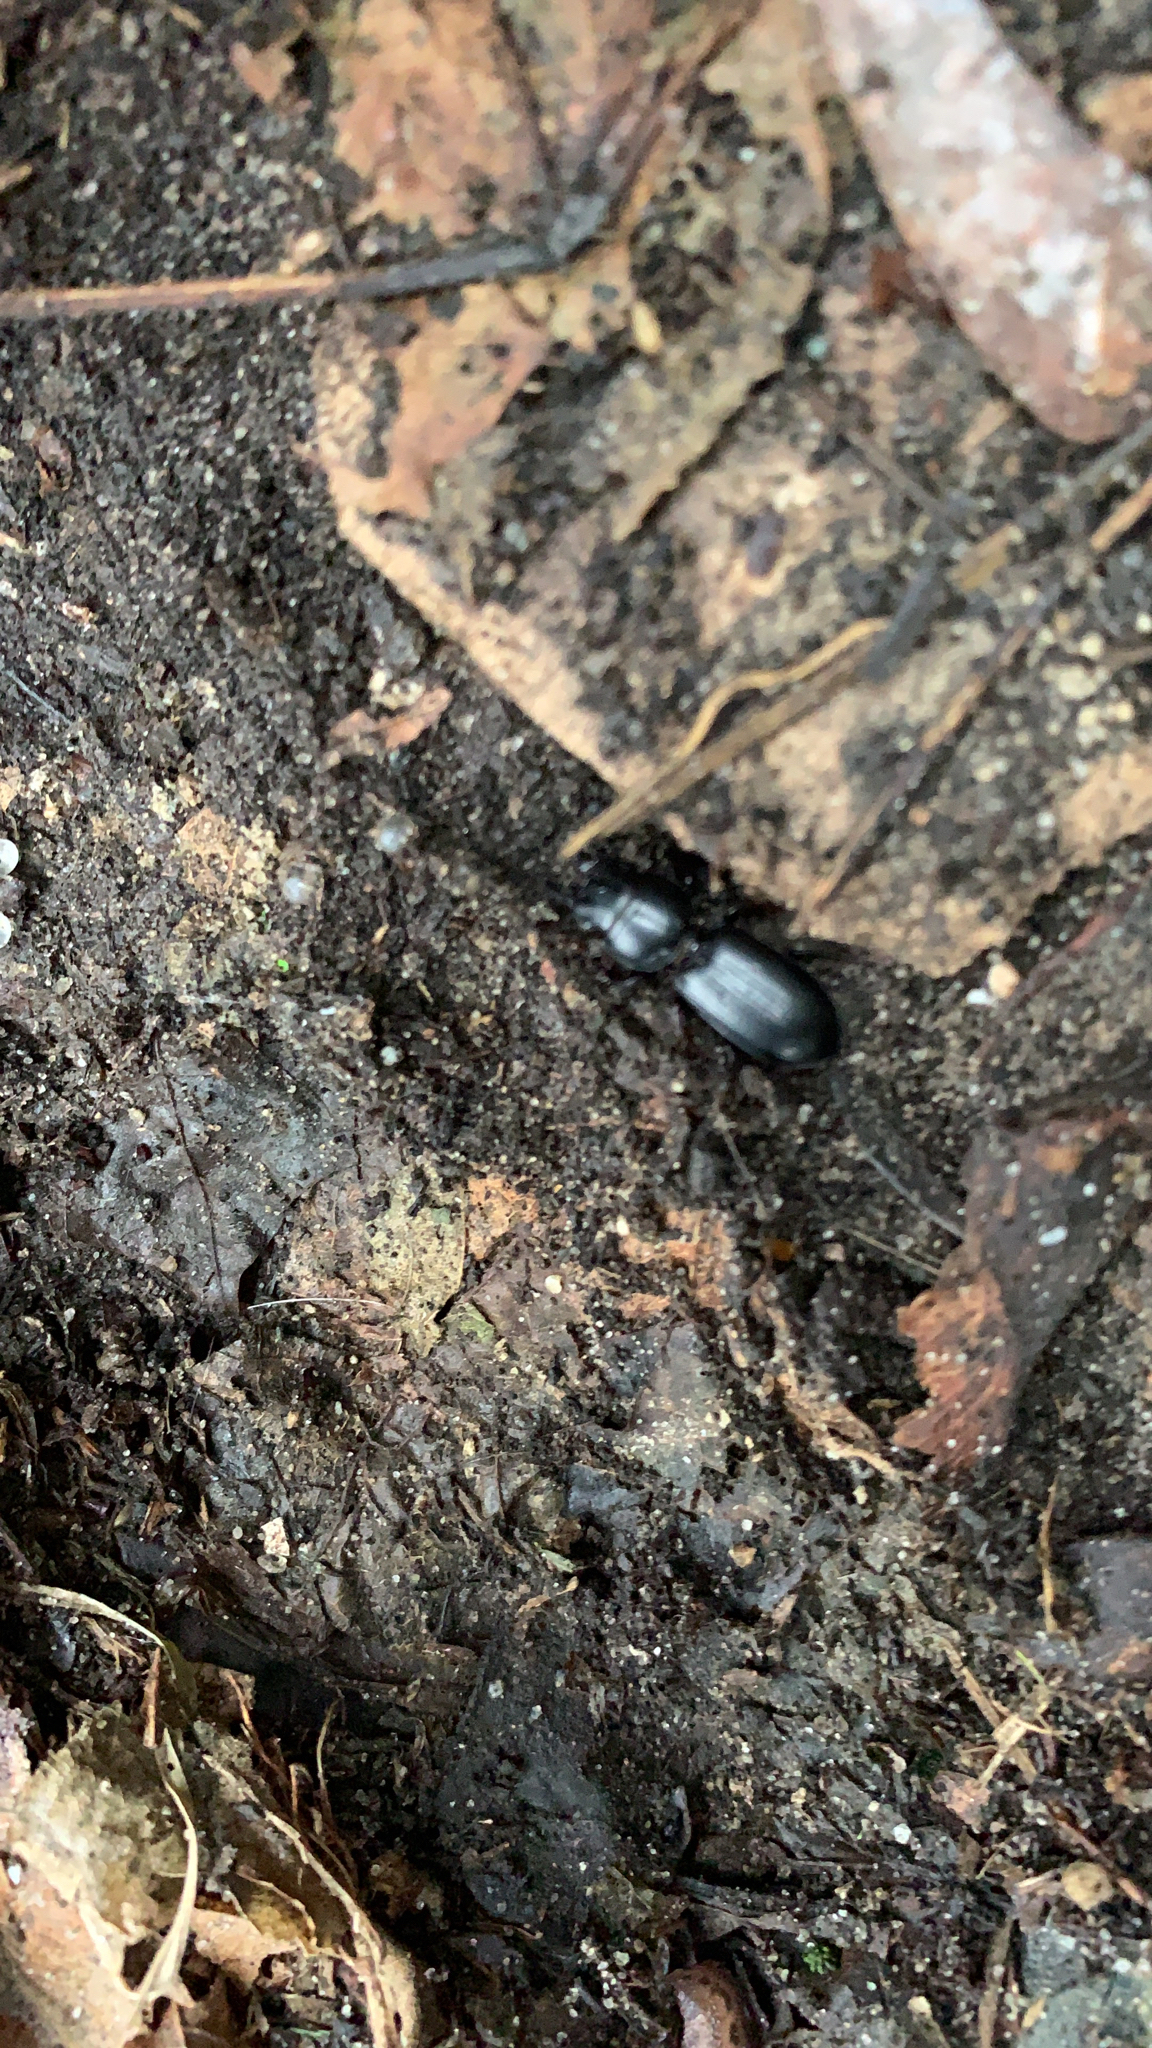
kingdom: Animalia
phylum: Arthropoda
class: Insecta
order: Coleoptera
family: Carabidae
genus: Scarites
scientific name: Scarites subterraneus
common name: Big-headed ground beetle
